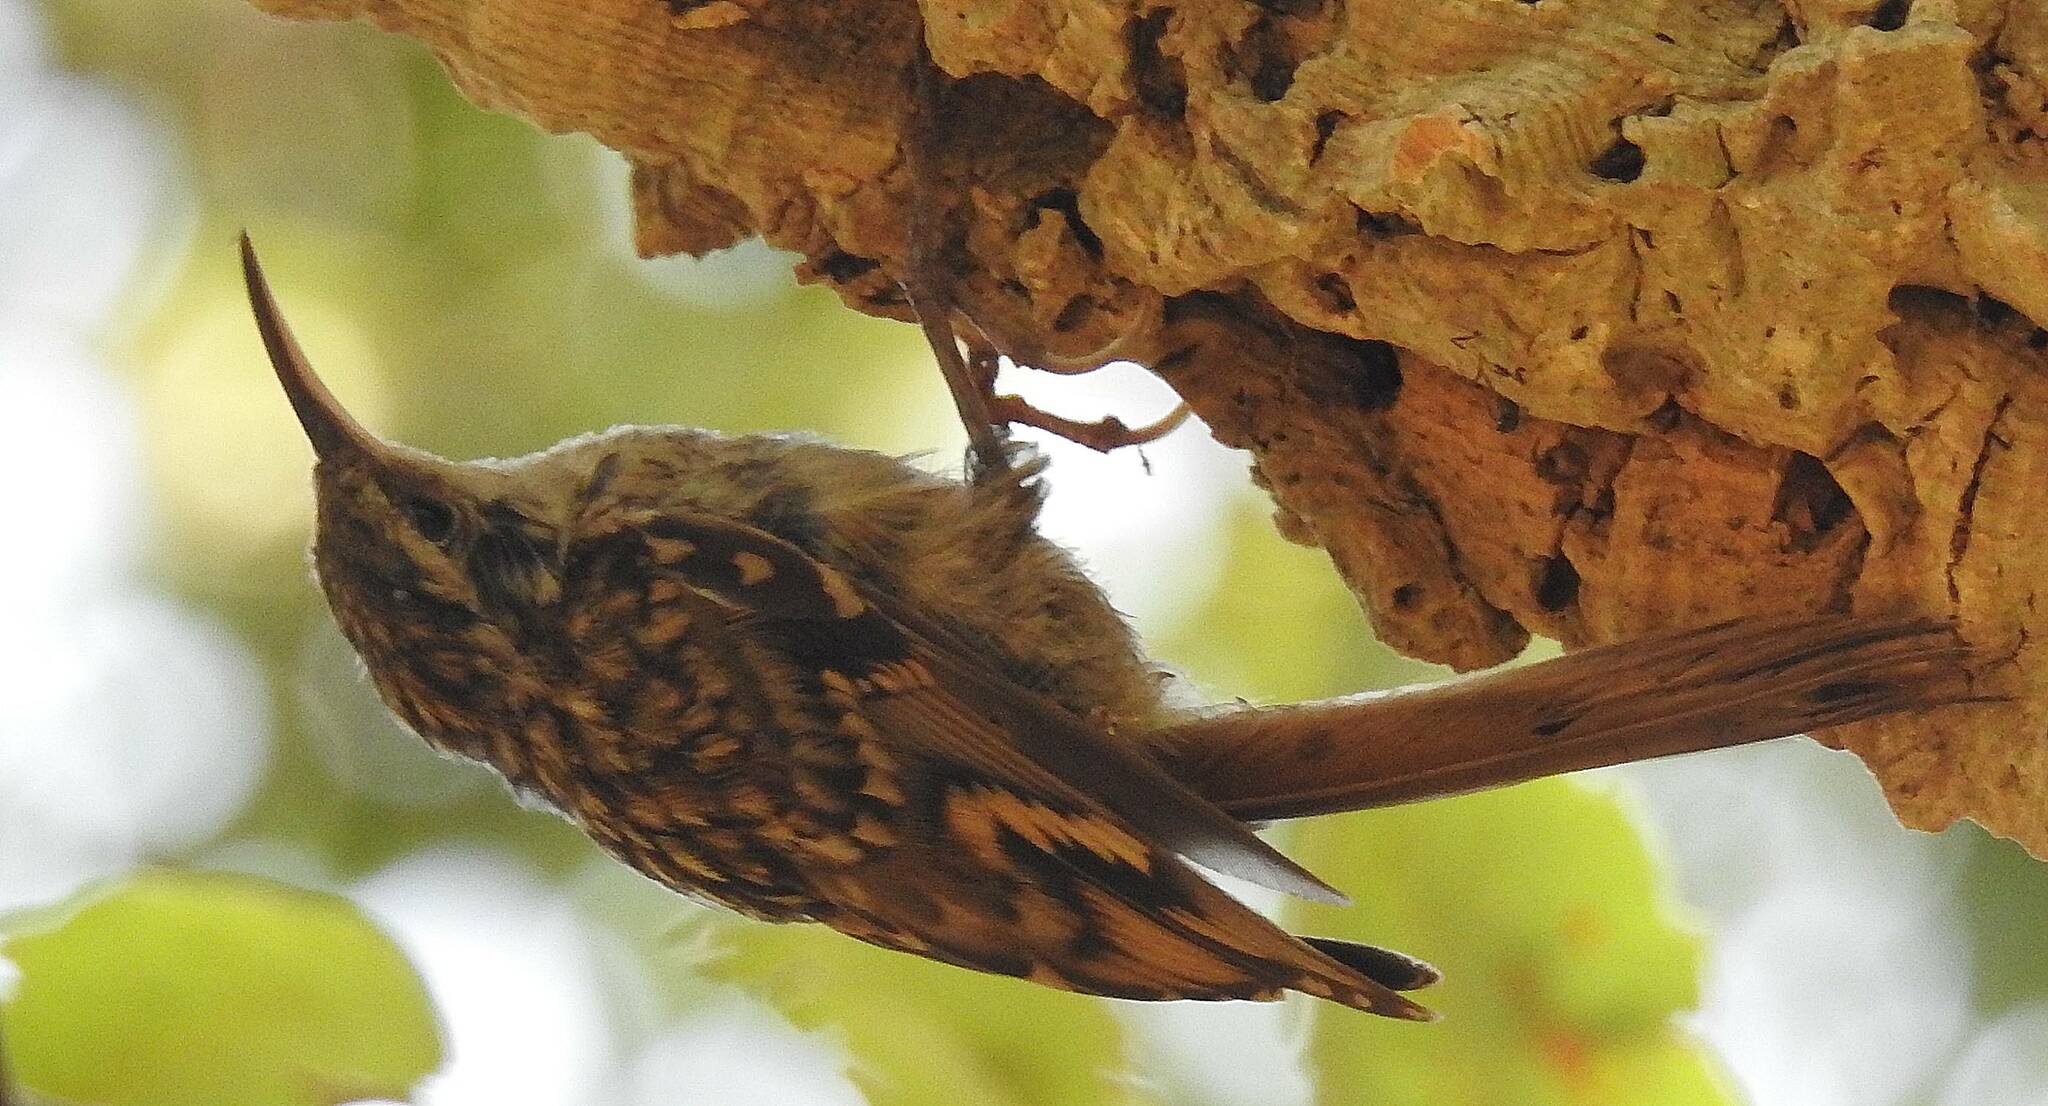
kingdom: Animalia
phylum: Chordata
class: Aves
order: Passeriformes
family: Certhiidae
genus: Certhia
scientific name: Certhia brachydactyla
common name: Short-toed treecreeper
